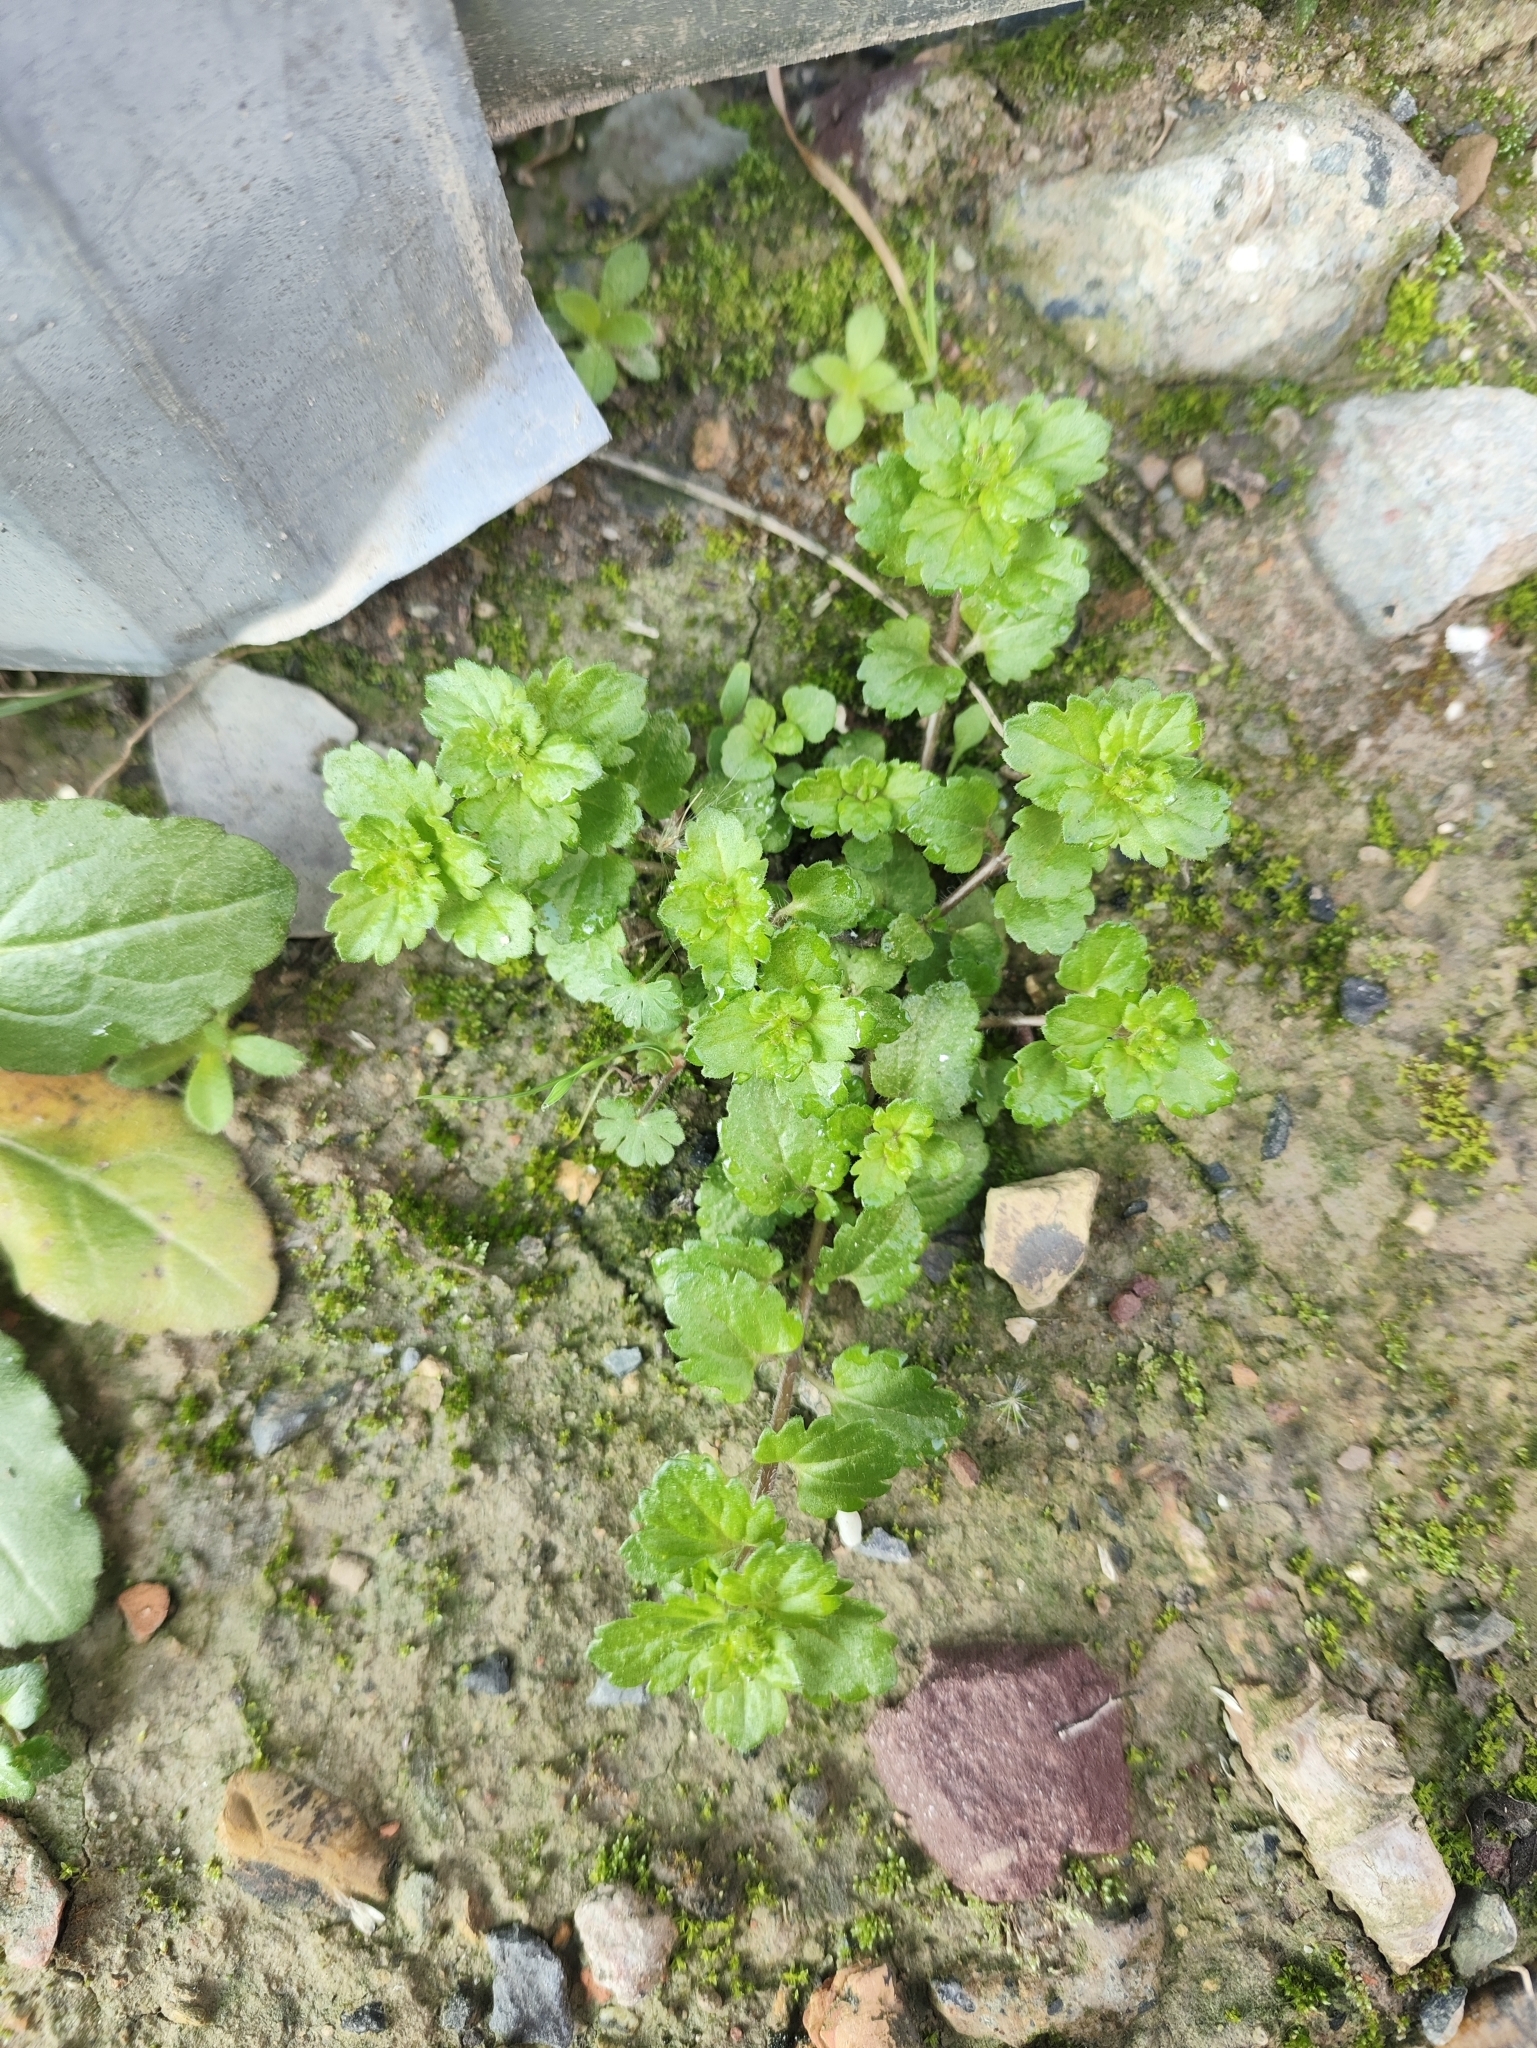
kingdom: Plantae
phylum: Tracheophyta
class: Magnoliopsida
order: Lamiales
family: Plantaginaceae
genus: Veronica
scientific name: Veronica persica
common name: Common field-speedwell
